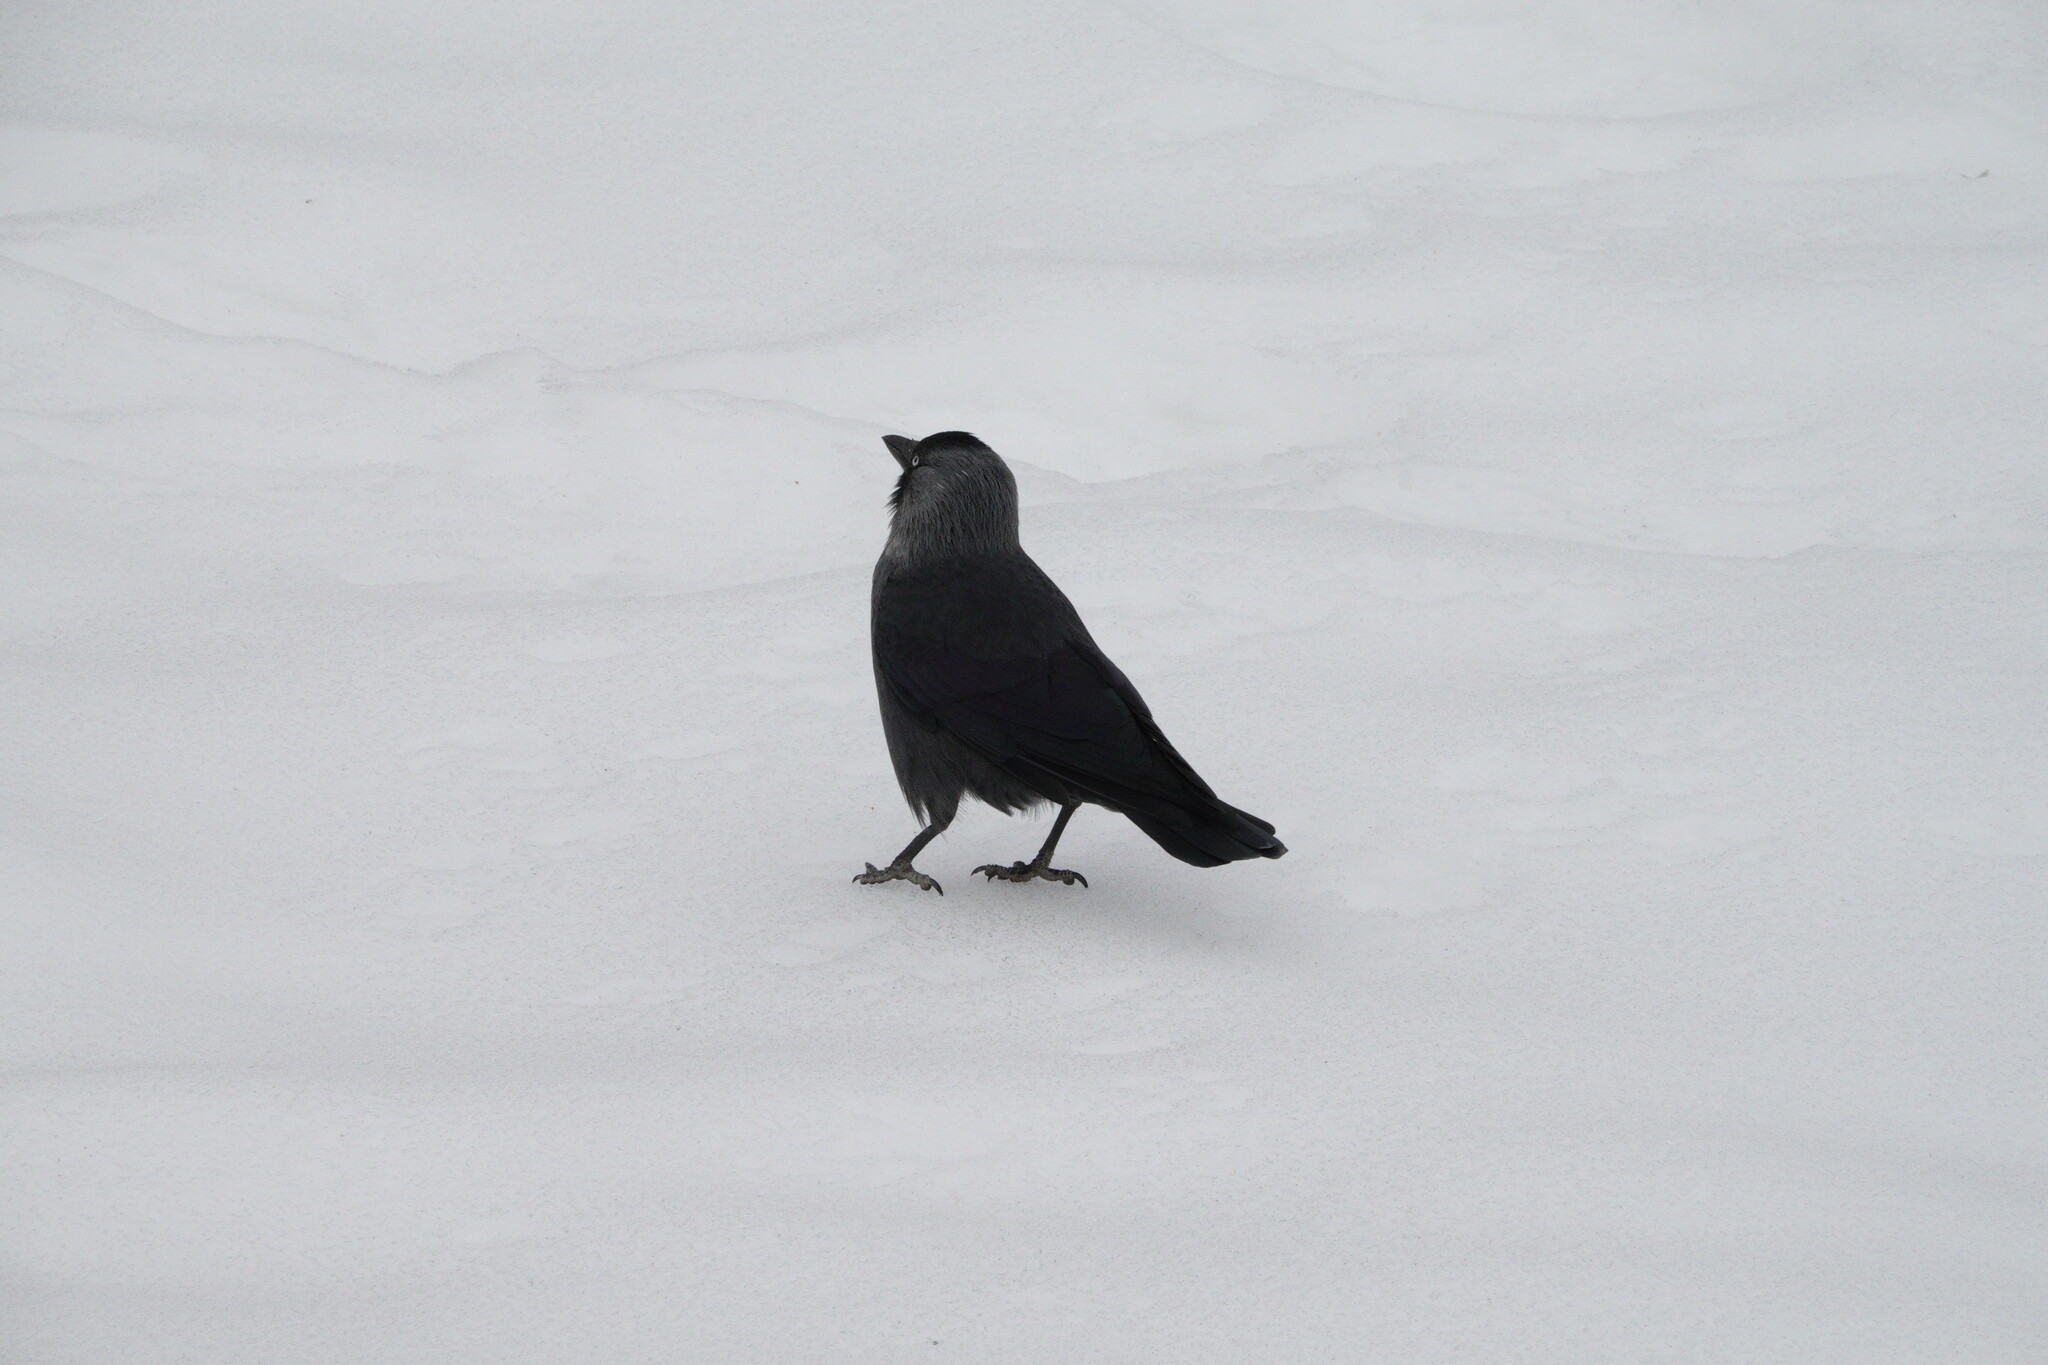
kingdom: Animalia
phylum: Chordata
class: Aves
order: Passeriformes
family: Corvidae
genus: Coloeus
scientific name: Coloeus monedula
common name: Western jackdaw
